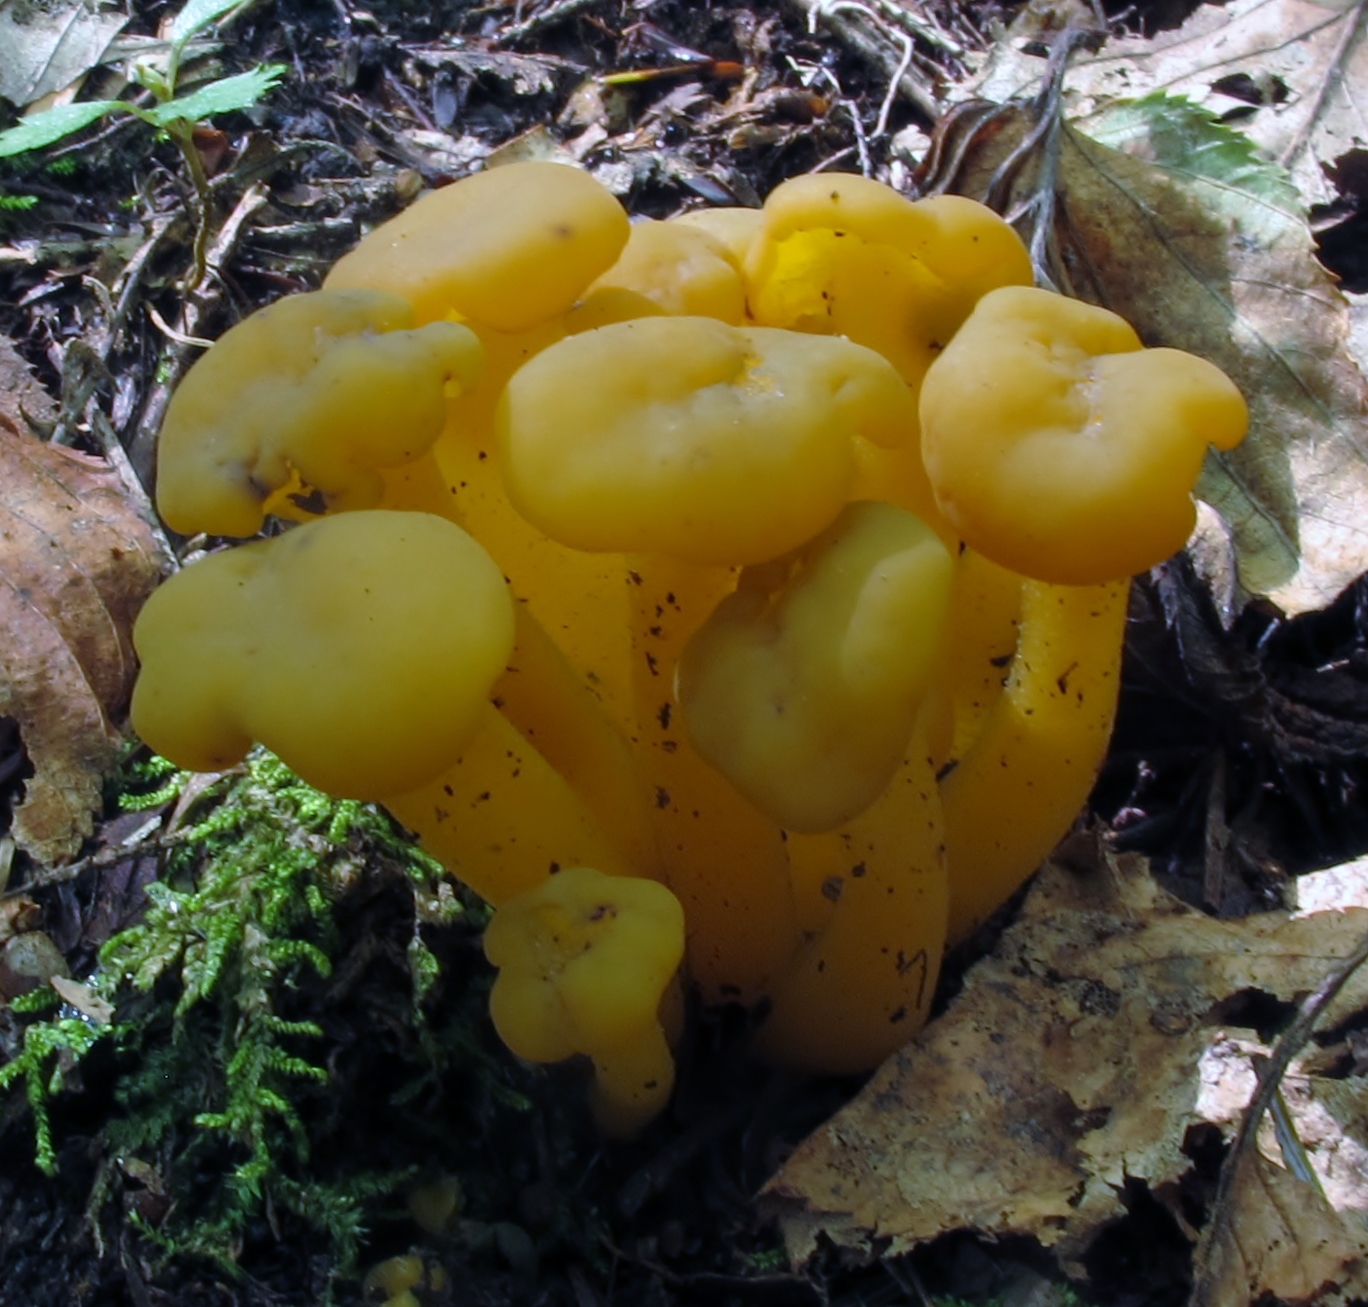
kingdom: Fungi
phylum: Ascomycota
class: Leotiomycetes
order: Leotiales
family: Leotiaceae
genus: Leotia
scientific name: Leotia lubrica
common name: Jellybaby
